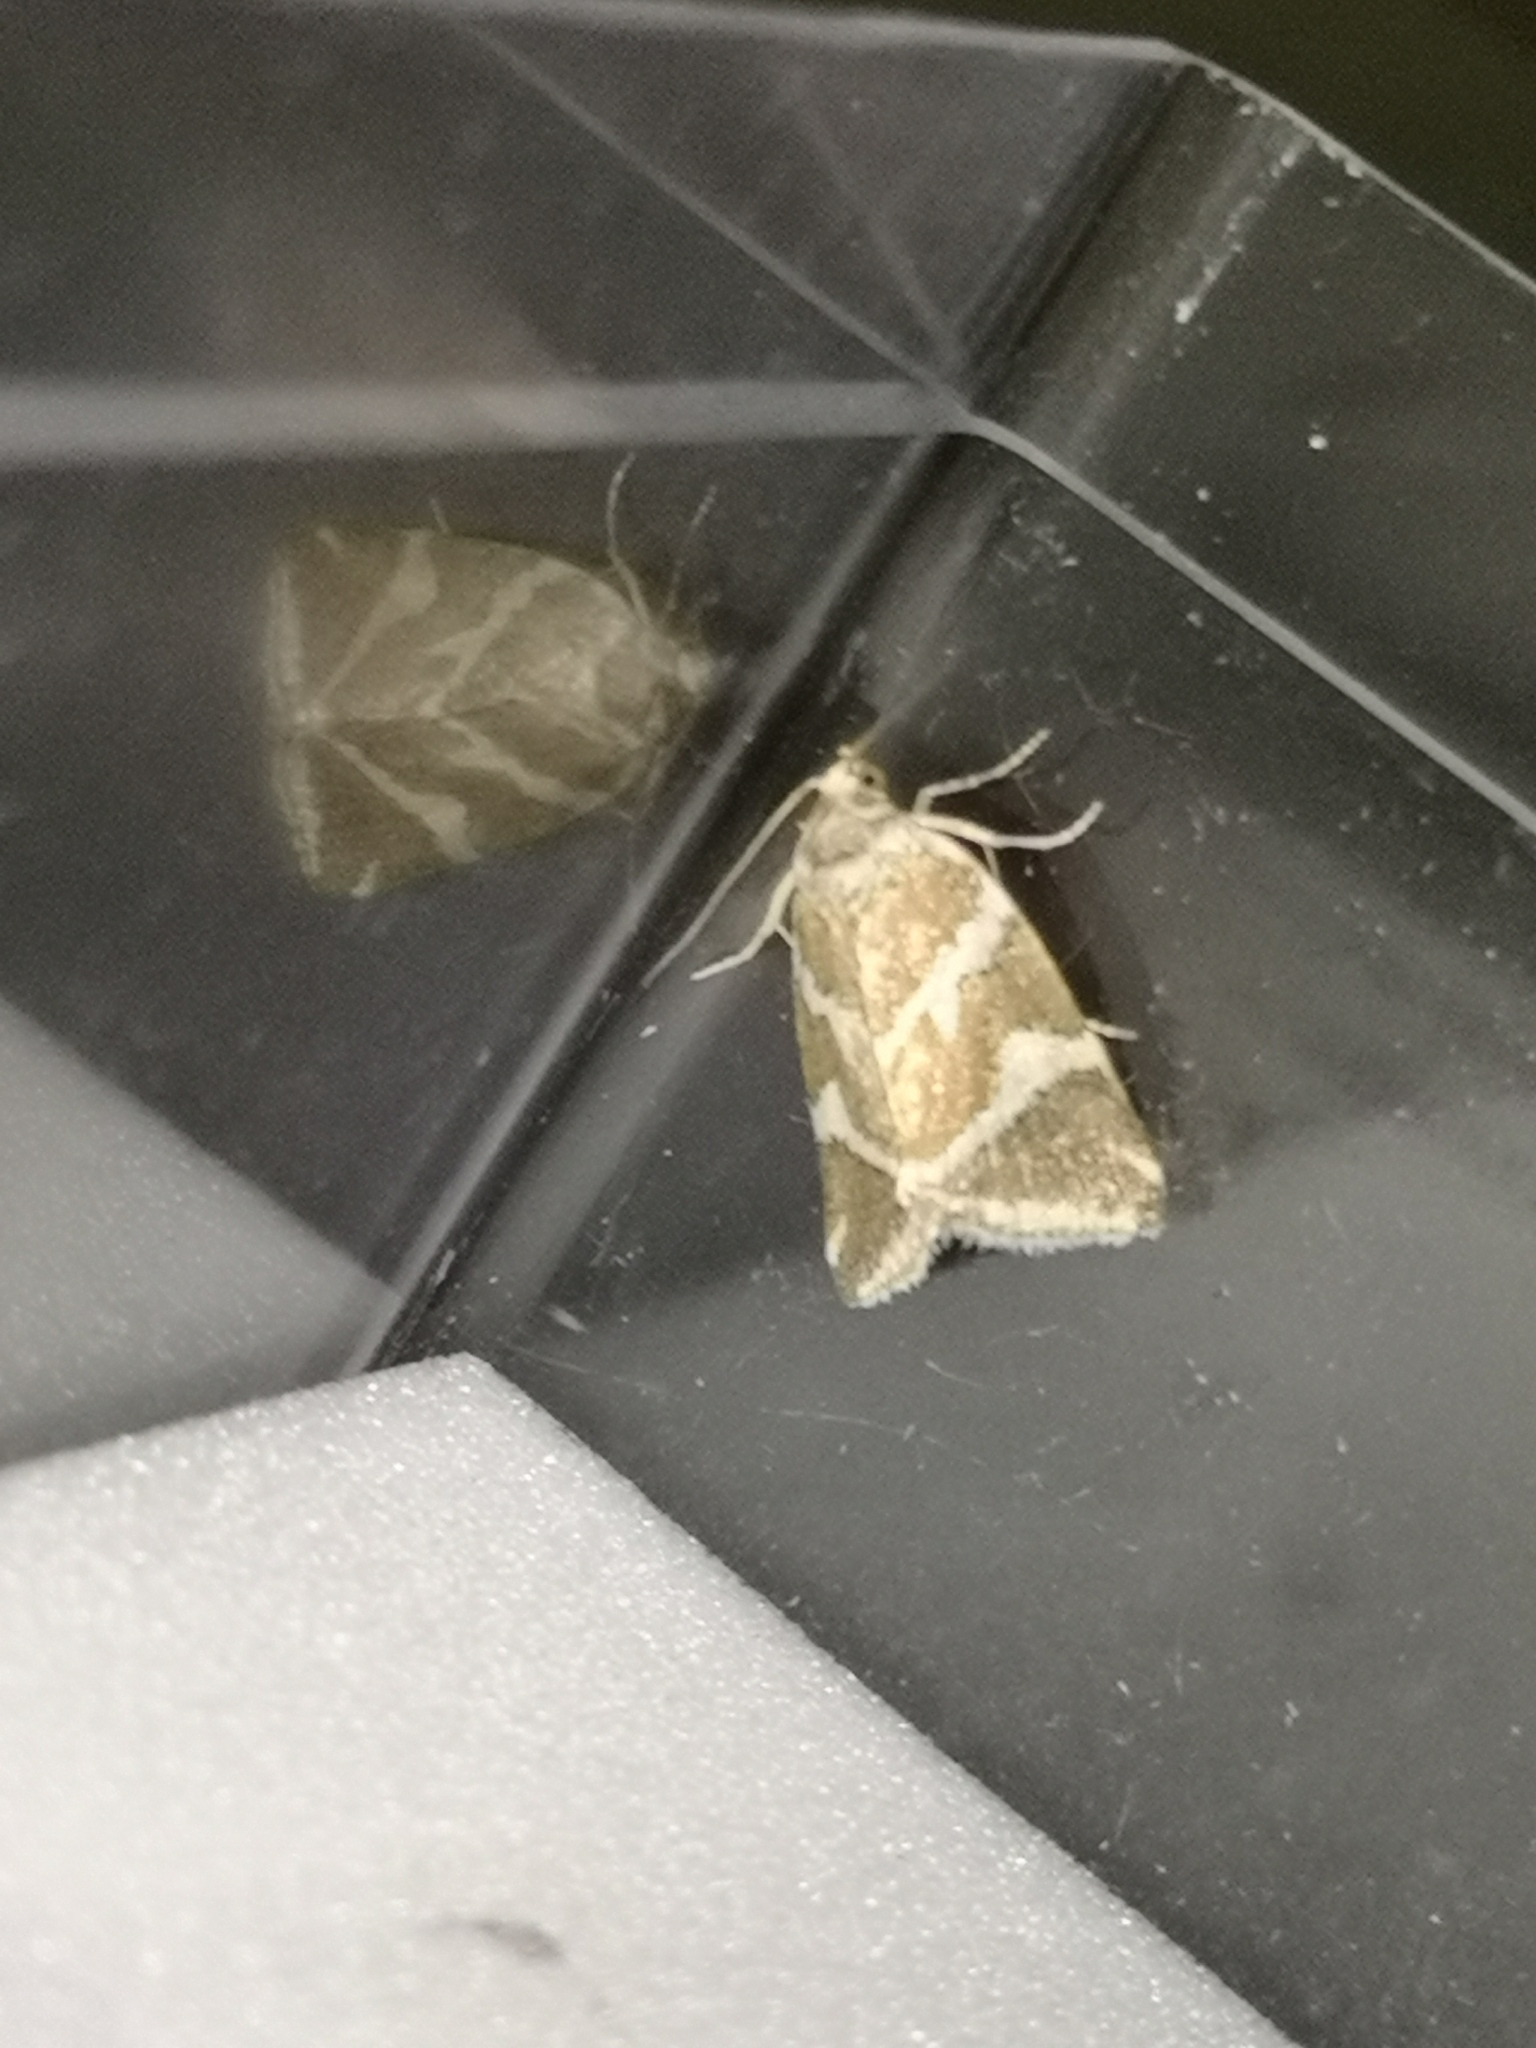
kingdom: Animalia
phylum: Arthropoda
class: Insecta
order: Lepidoptera
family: Noctuidae
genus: Deltote
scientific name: Deltote bankiana
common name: Silver barred
